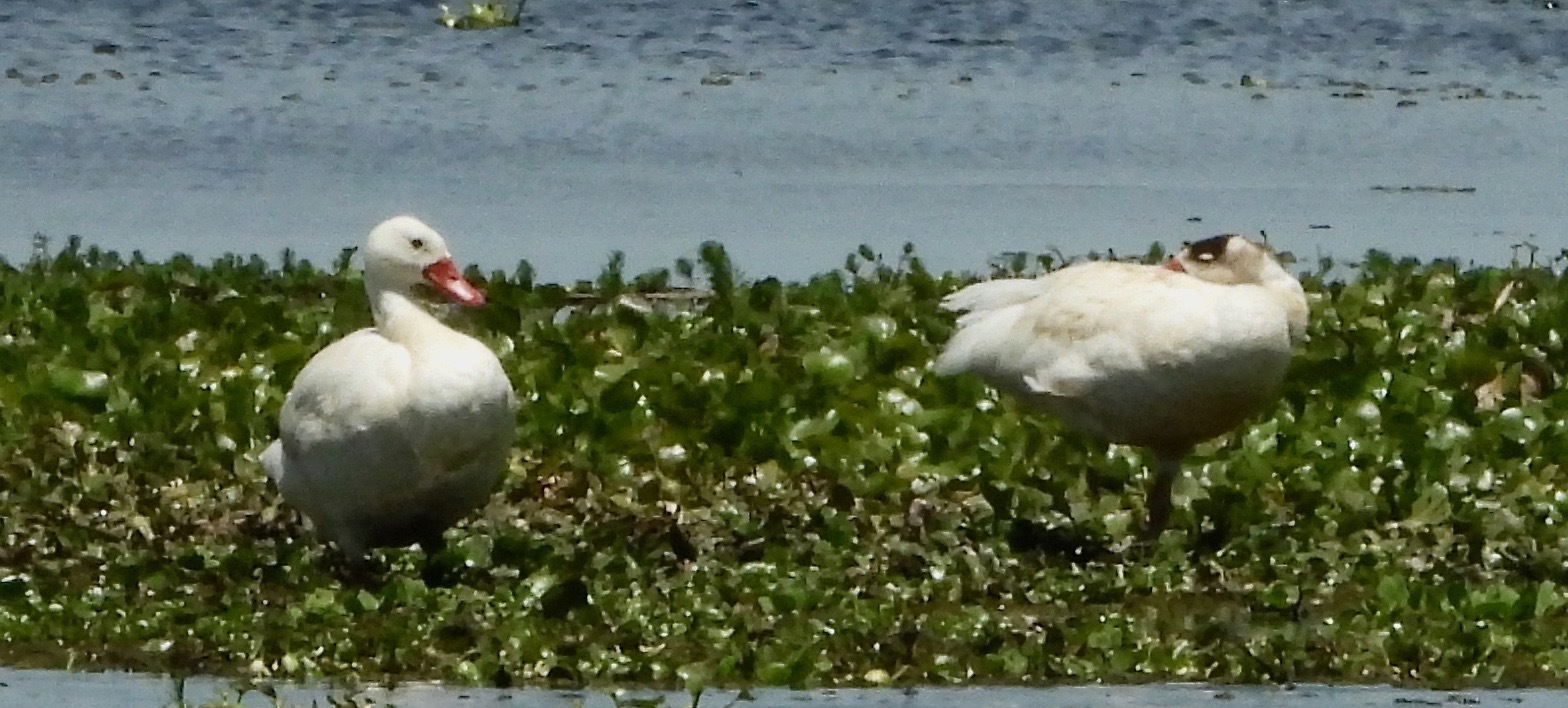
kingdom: Animalia
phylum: Chordata
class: Aves
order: Anseriformes
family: Anatidae
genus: Coscoroba
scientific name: Coscoroba coscoroba
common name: Coscoroba swan
